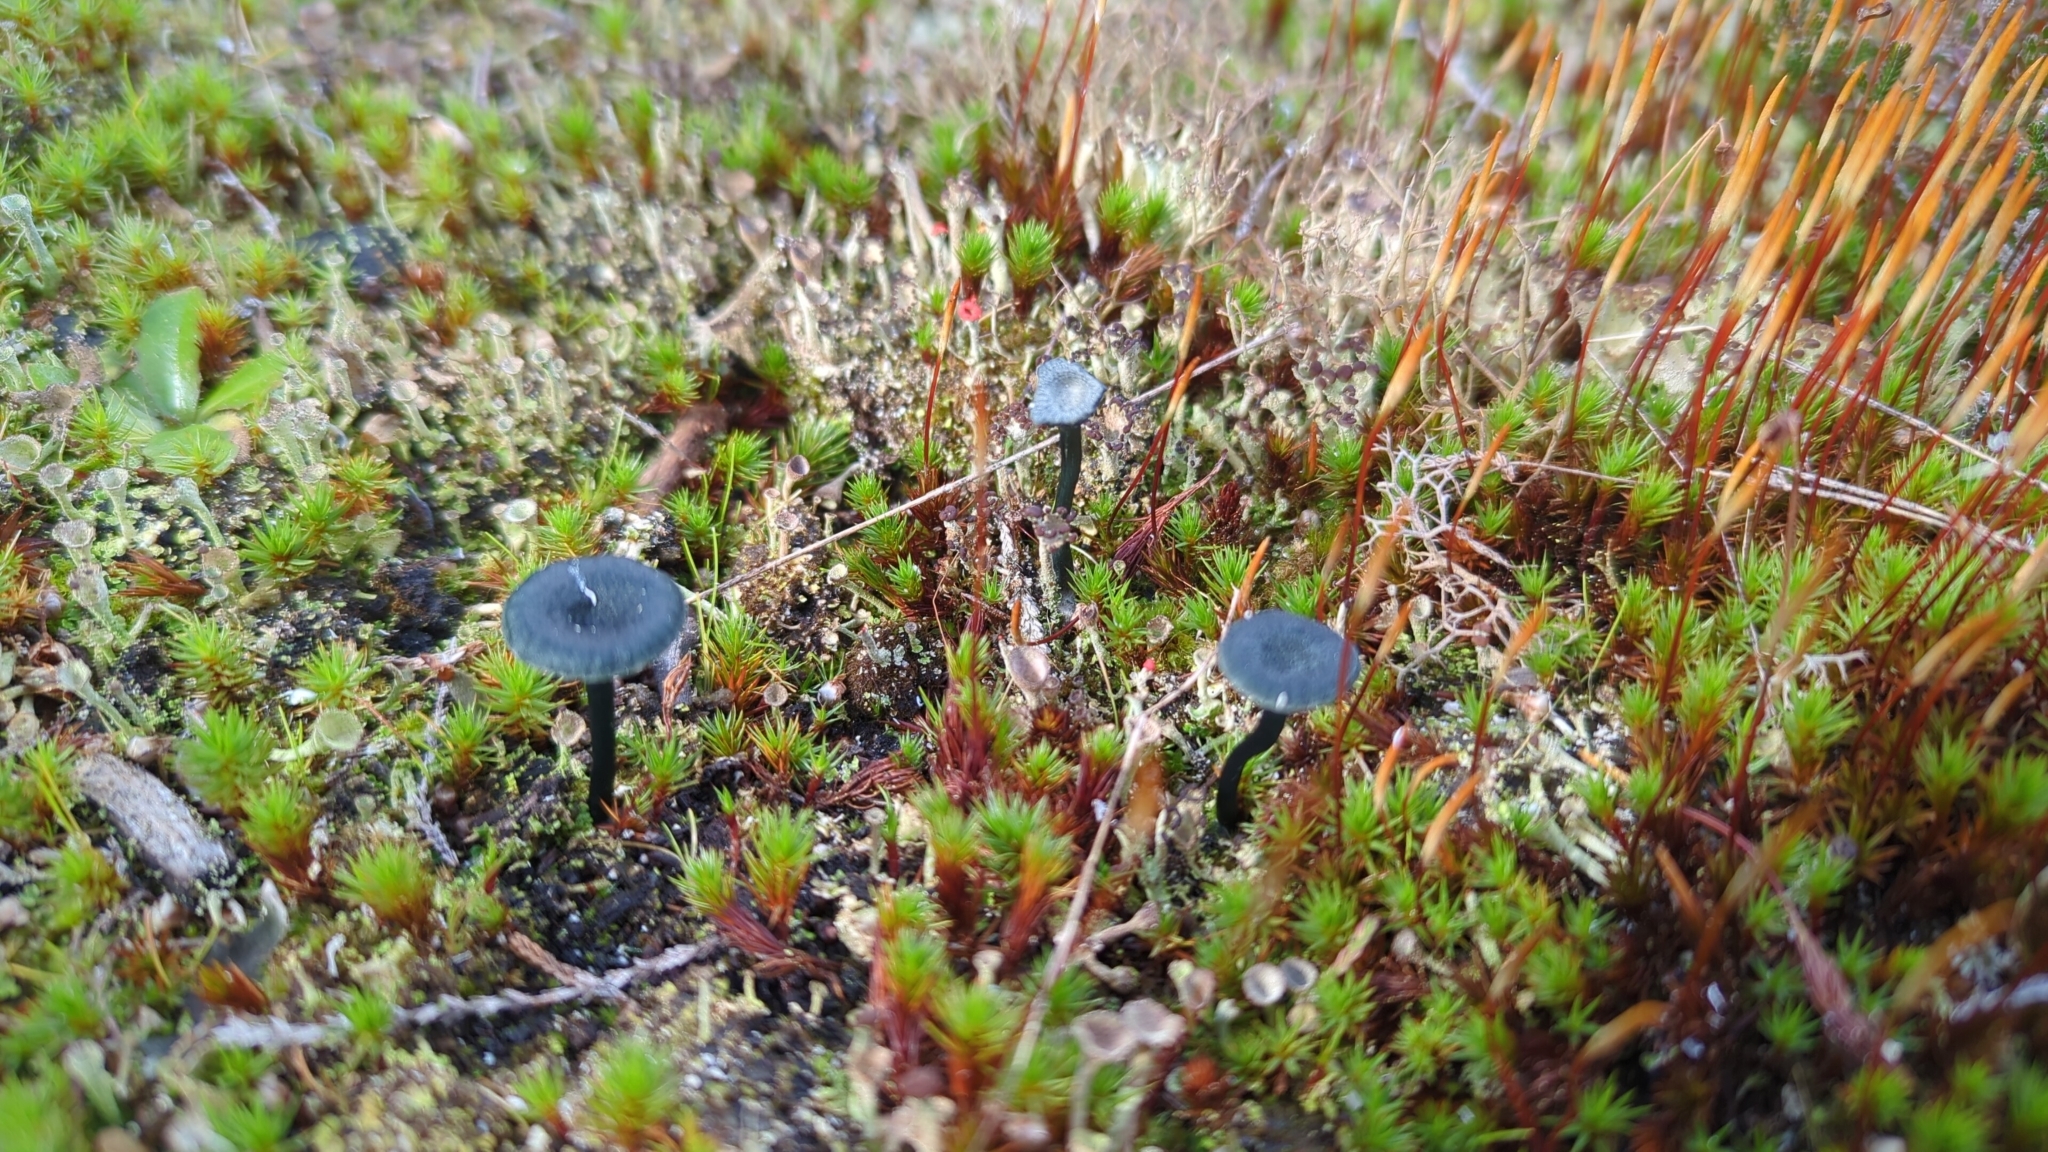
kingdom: Fungi
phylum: Basidiomycota
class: Agaricomycetes
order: Agaricales
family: Hygrophoraceae
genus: Arrhenia
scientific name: Arrhenia chlorocyanea
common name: Verdigris navel
